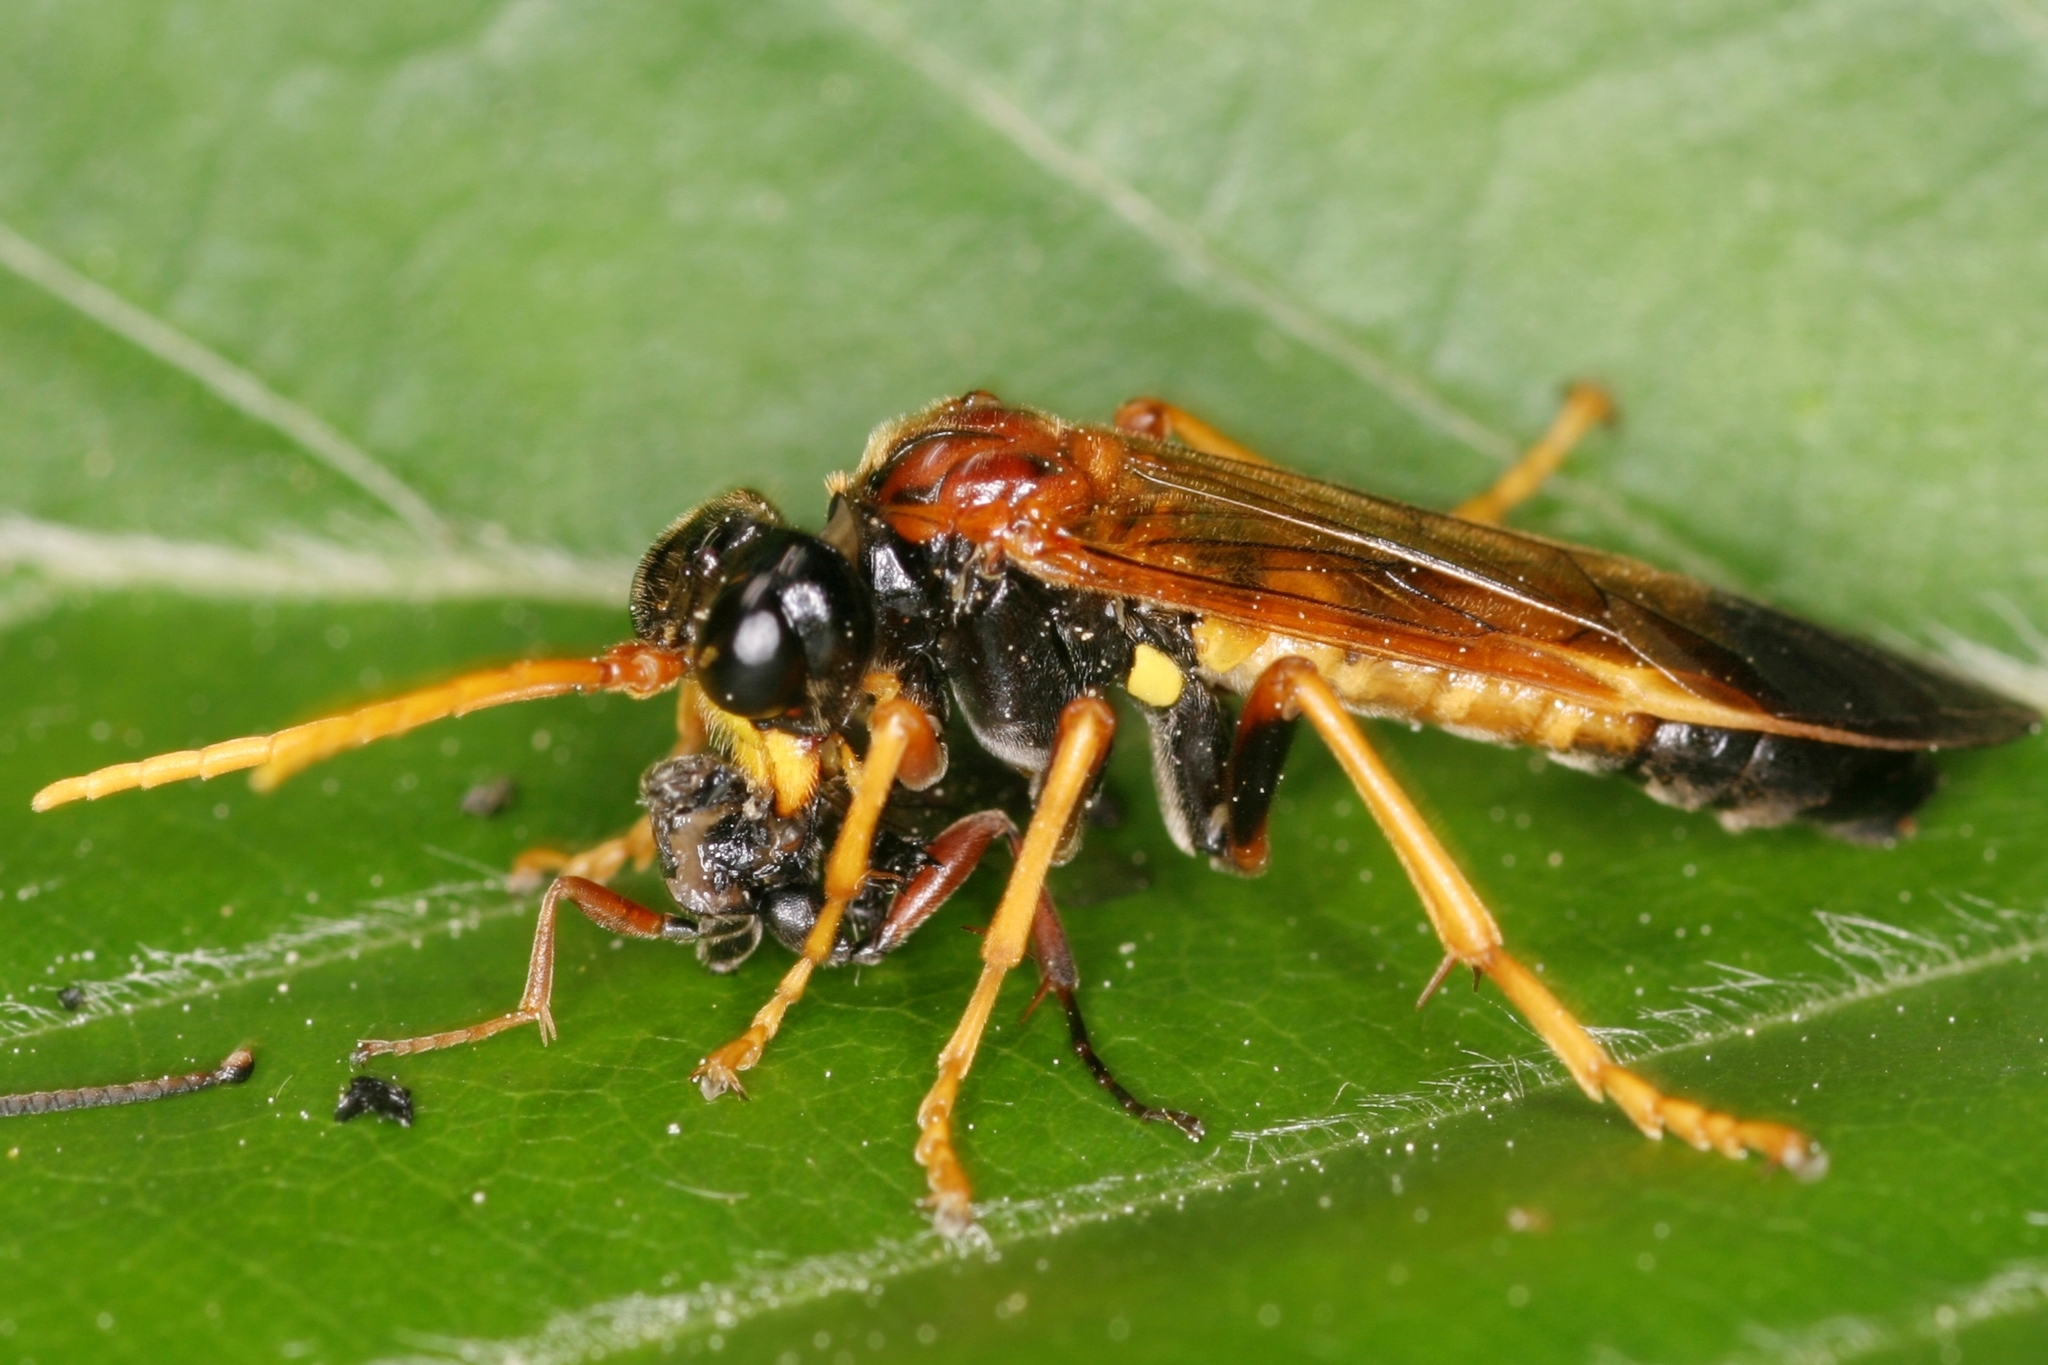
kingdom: Animalia
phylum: Arthropoda
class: Insecta
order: Hymenoptera
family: Tenthredinidae
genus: Tenthredo
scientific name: Tenthredo campestris
